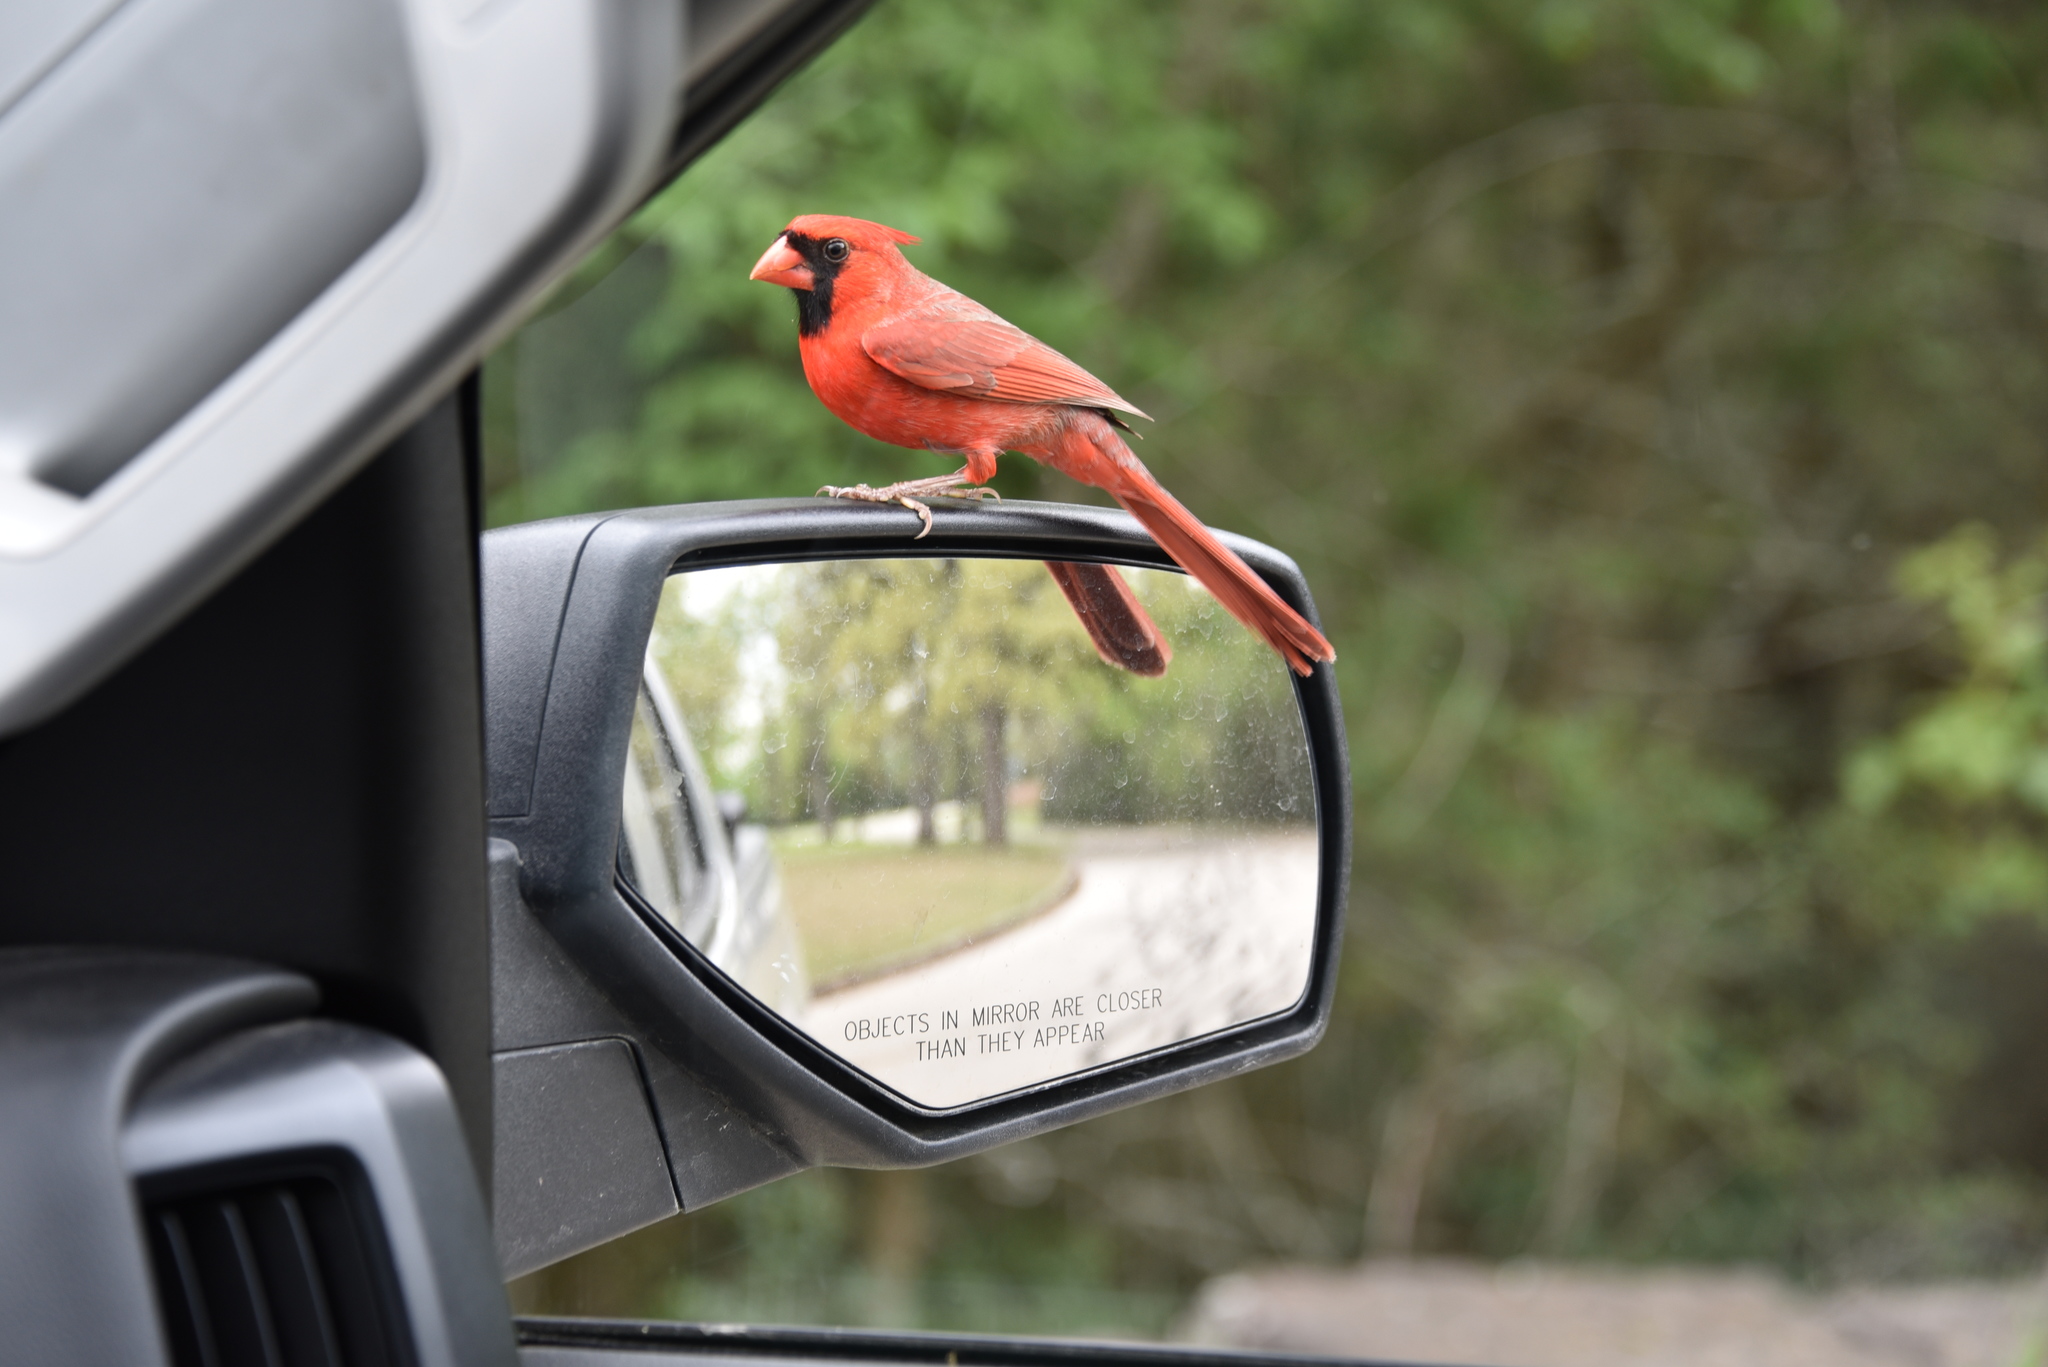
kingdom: Animalia
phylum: Chordata
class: Aves
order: Passeriformes
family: Cardinalidae
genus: Cardinalis
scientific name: Cardinalis cardinalis
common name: Northern cardinal
